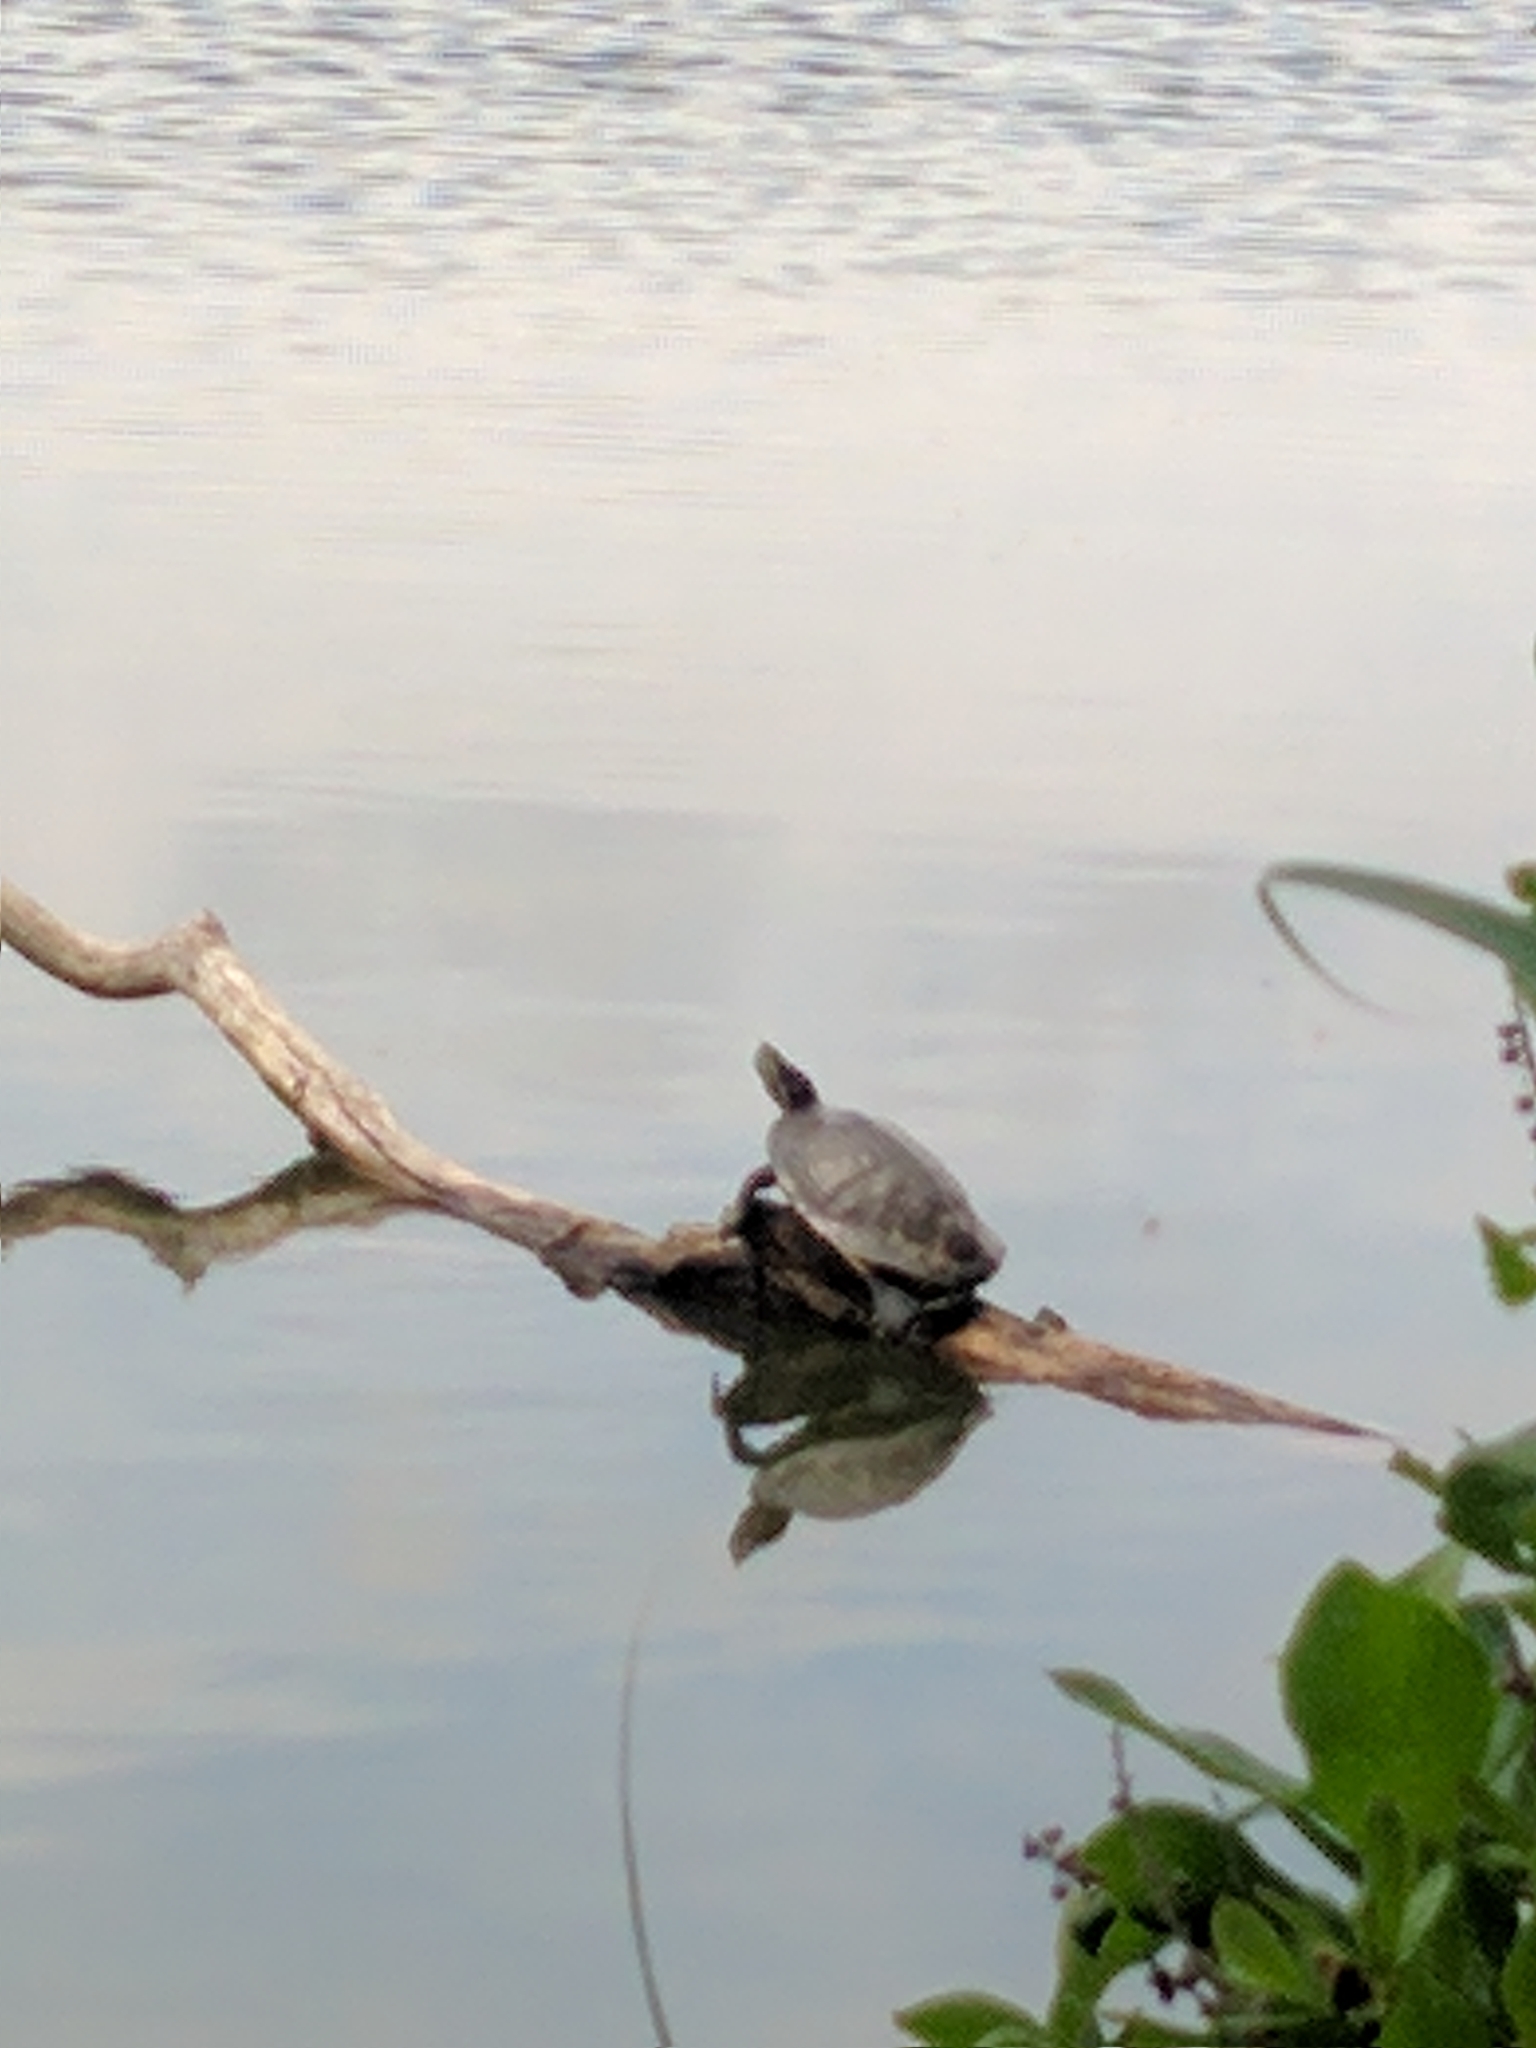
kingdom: Animalia
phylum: Chordata
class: Testudines
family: Emydidae
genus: Trachemys
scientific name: Trachemys scripta
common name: Slider
